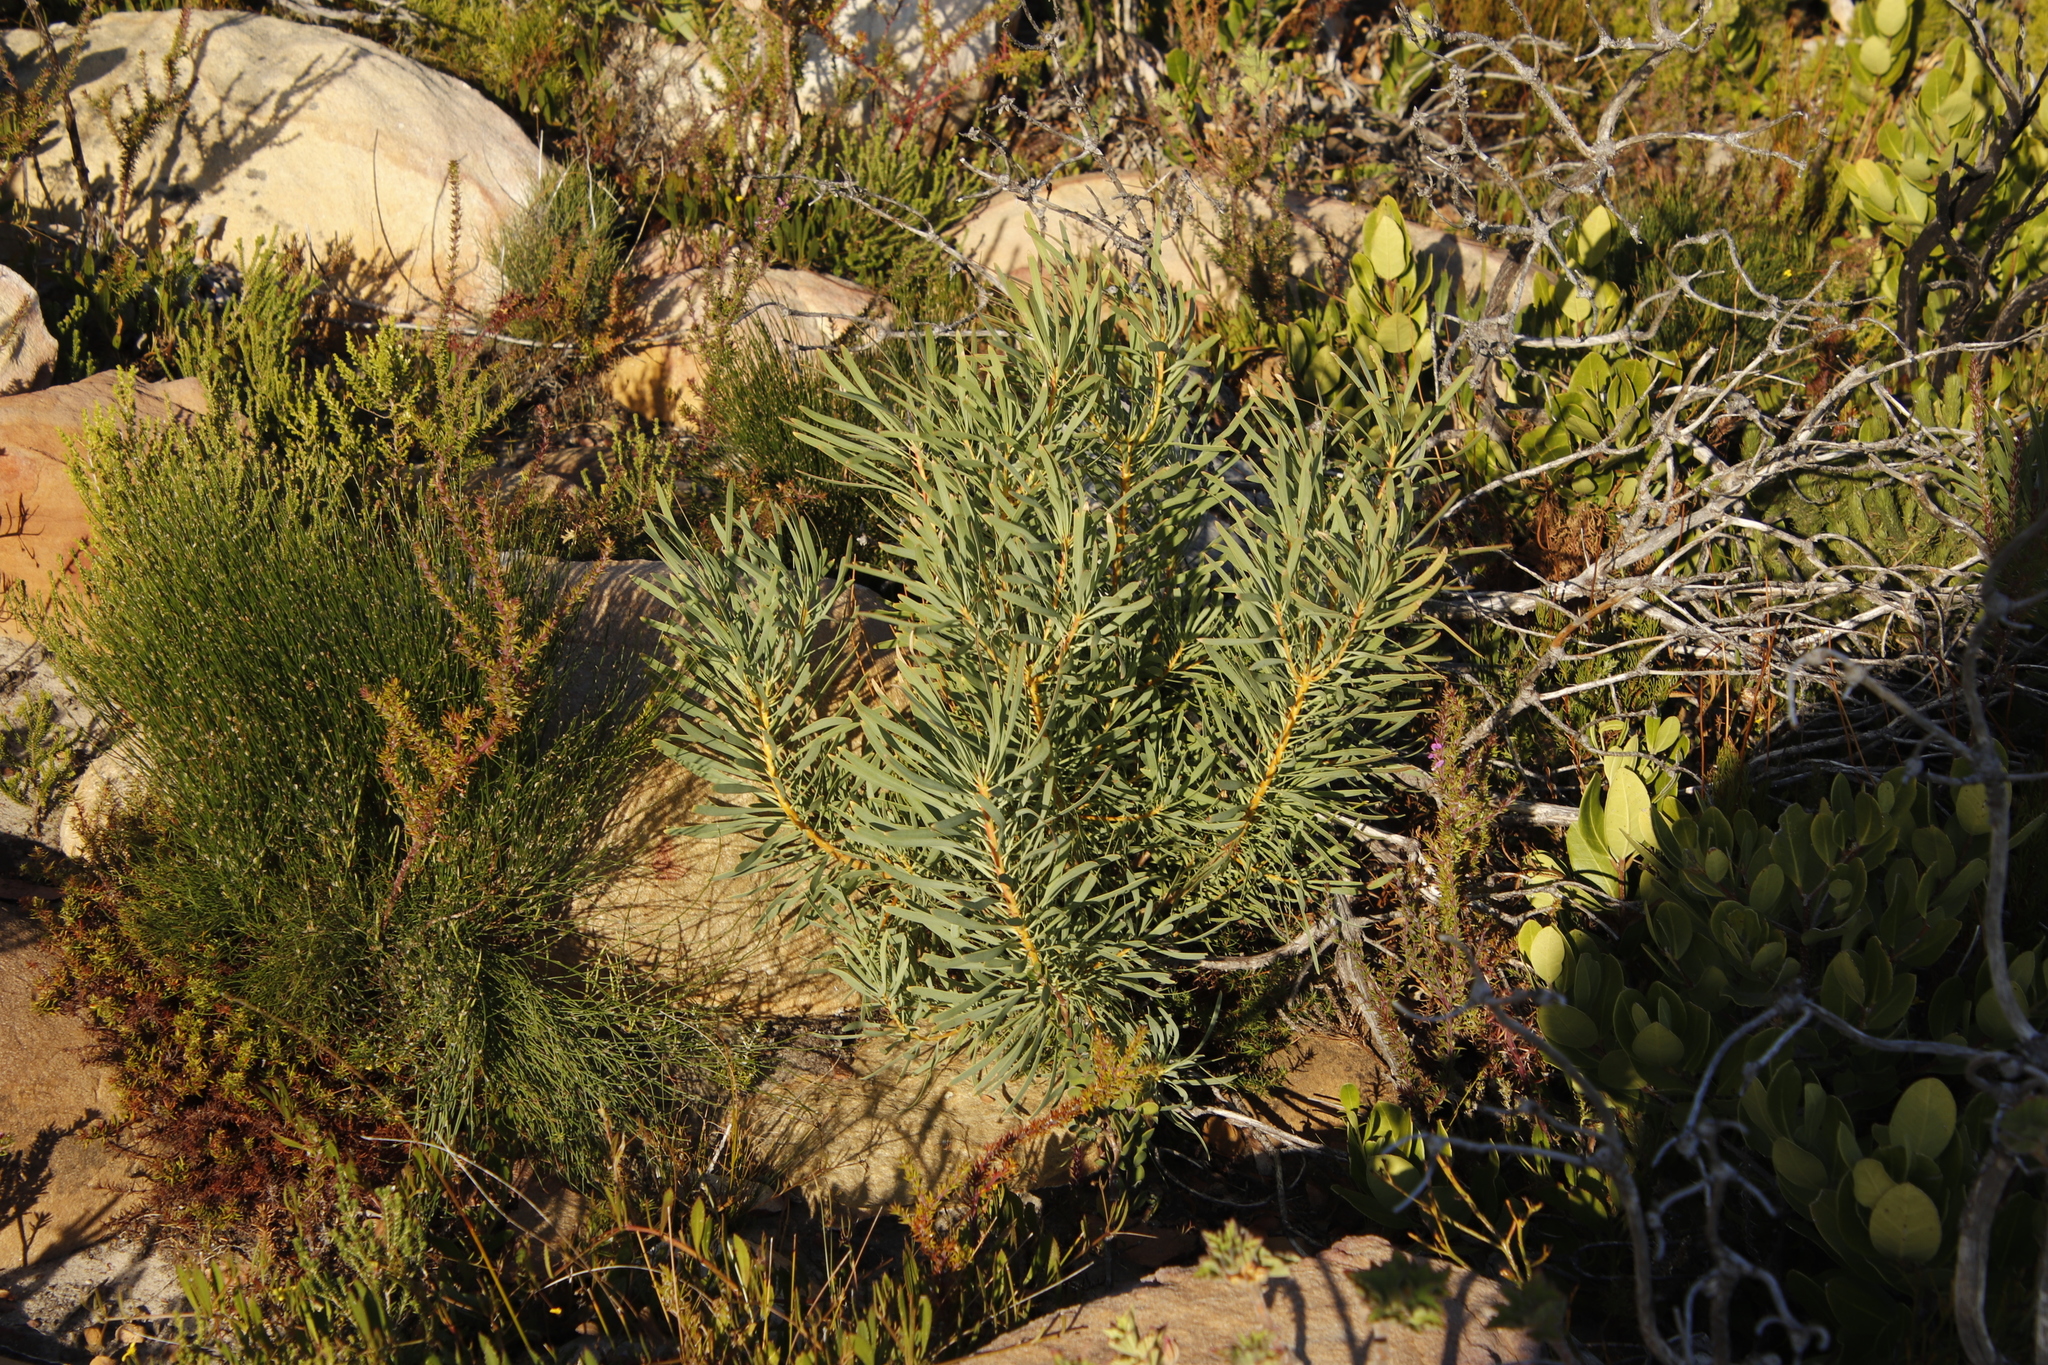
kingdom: Plantae
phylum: Tracheophyta
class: Magnoliopsida
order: Proteales
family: Proteaceae
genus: Protea
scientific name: Protea repens
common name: Sugarbush
